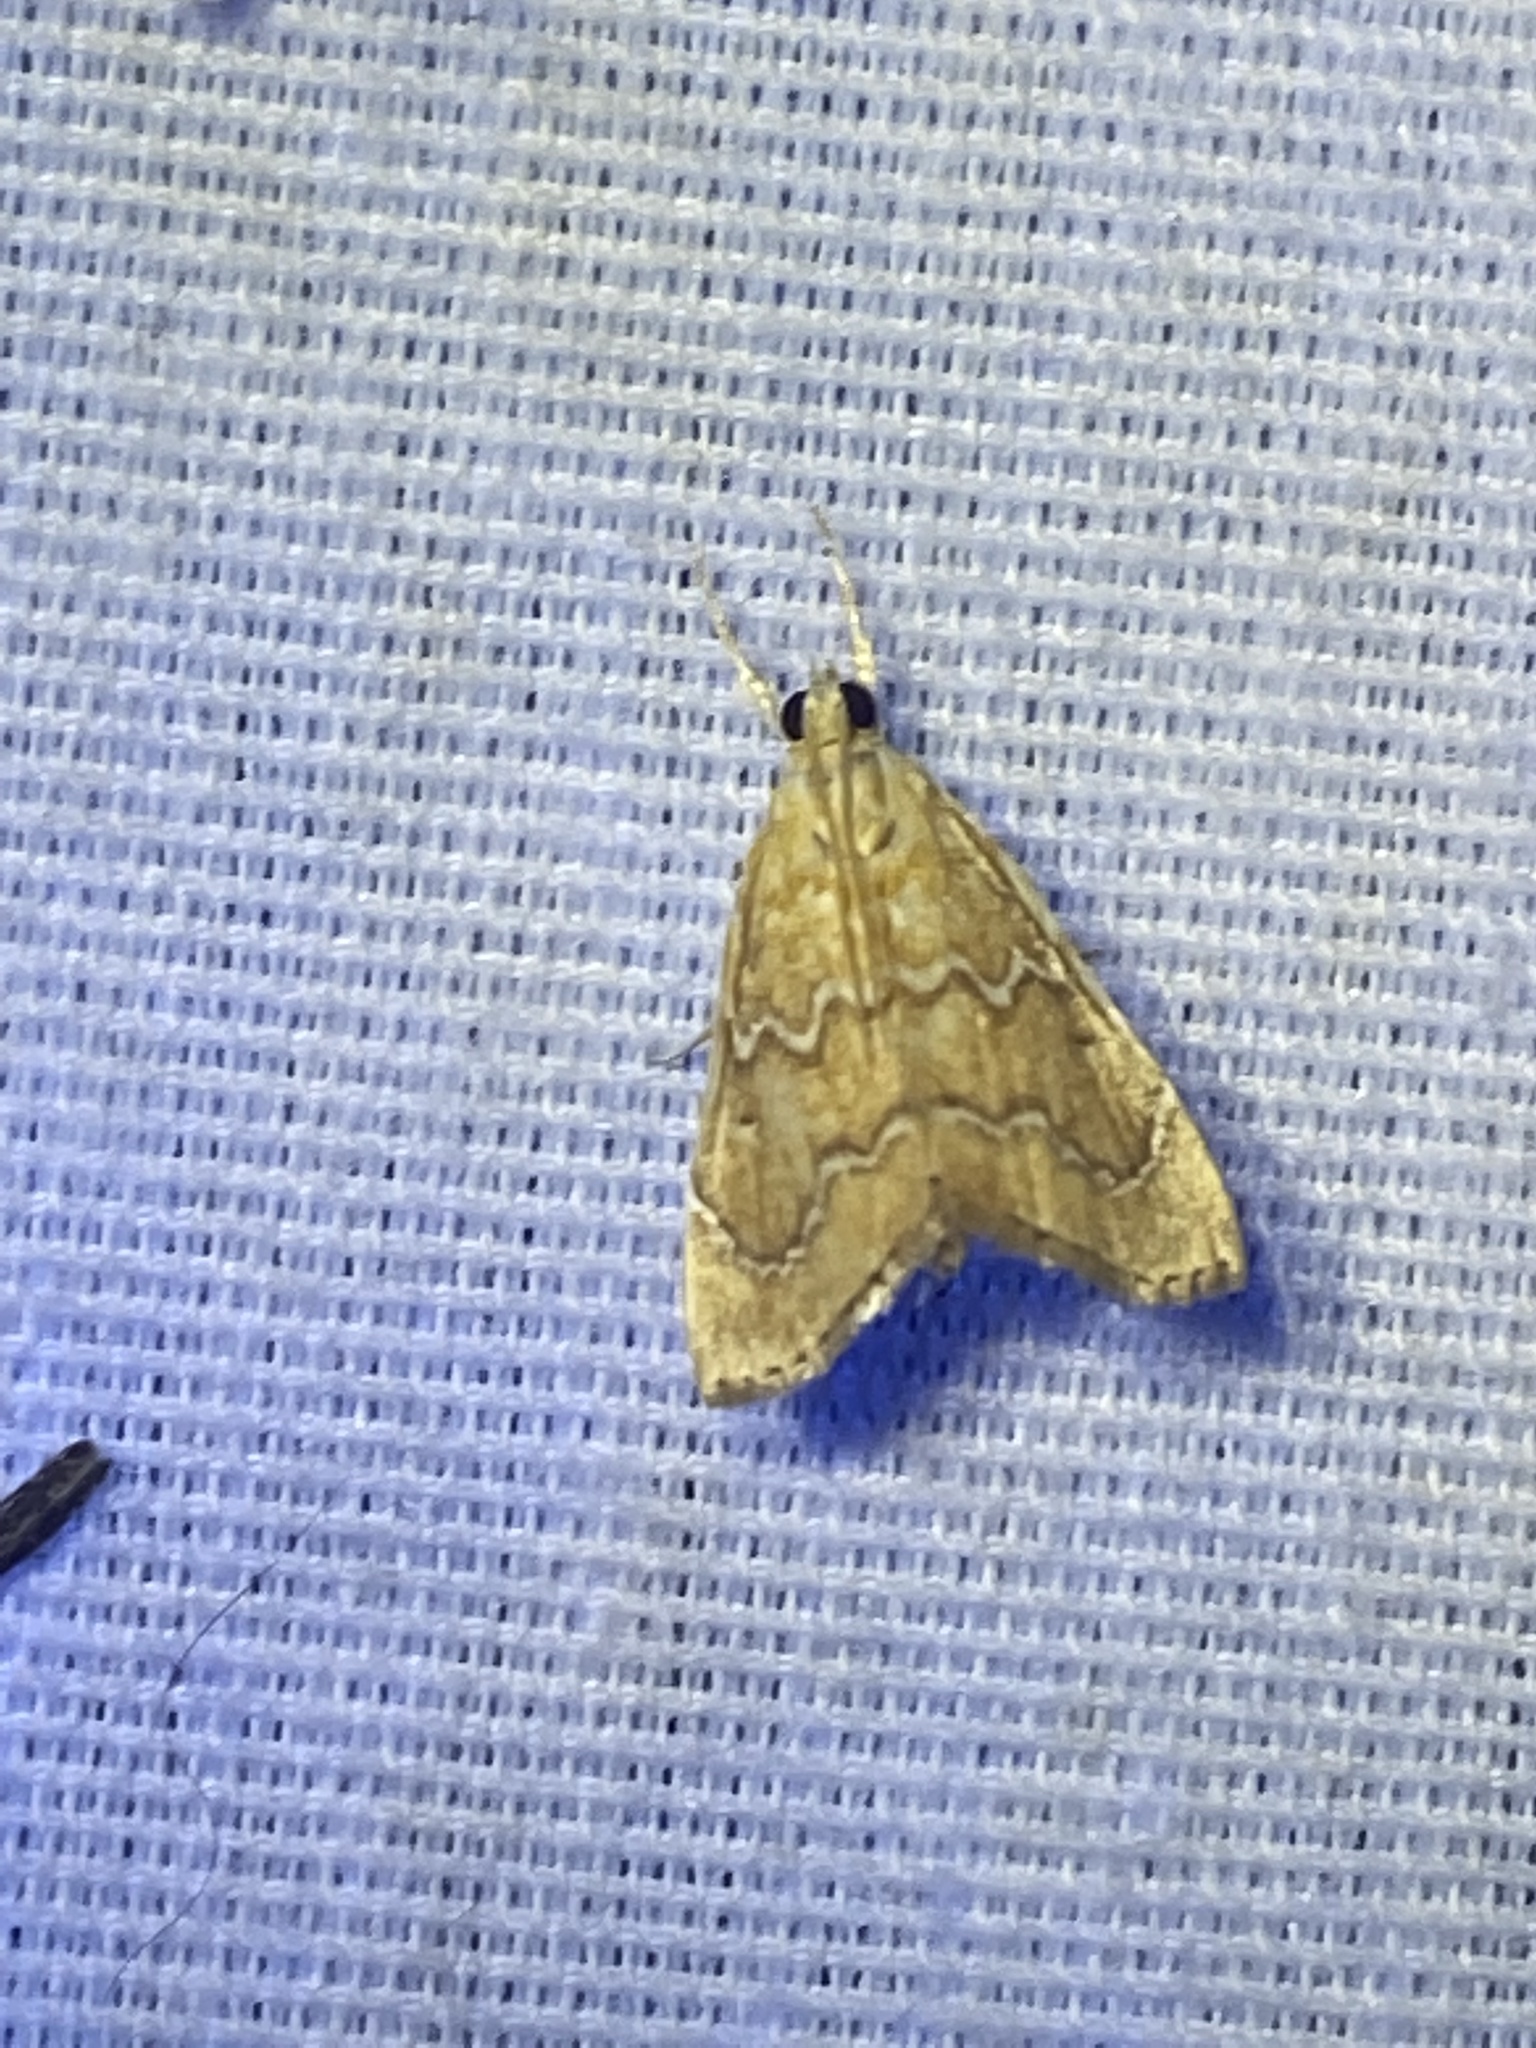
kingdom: Animalia
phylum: Arthropoda
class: Insecta
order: Lepidoptera
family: Crambidae
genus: Glaphyria
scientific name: Glaphyria sesquistrialis
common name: White-roped glaphyria
